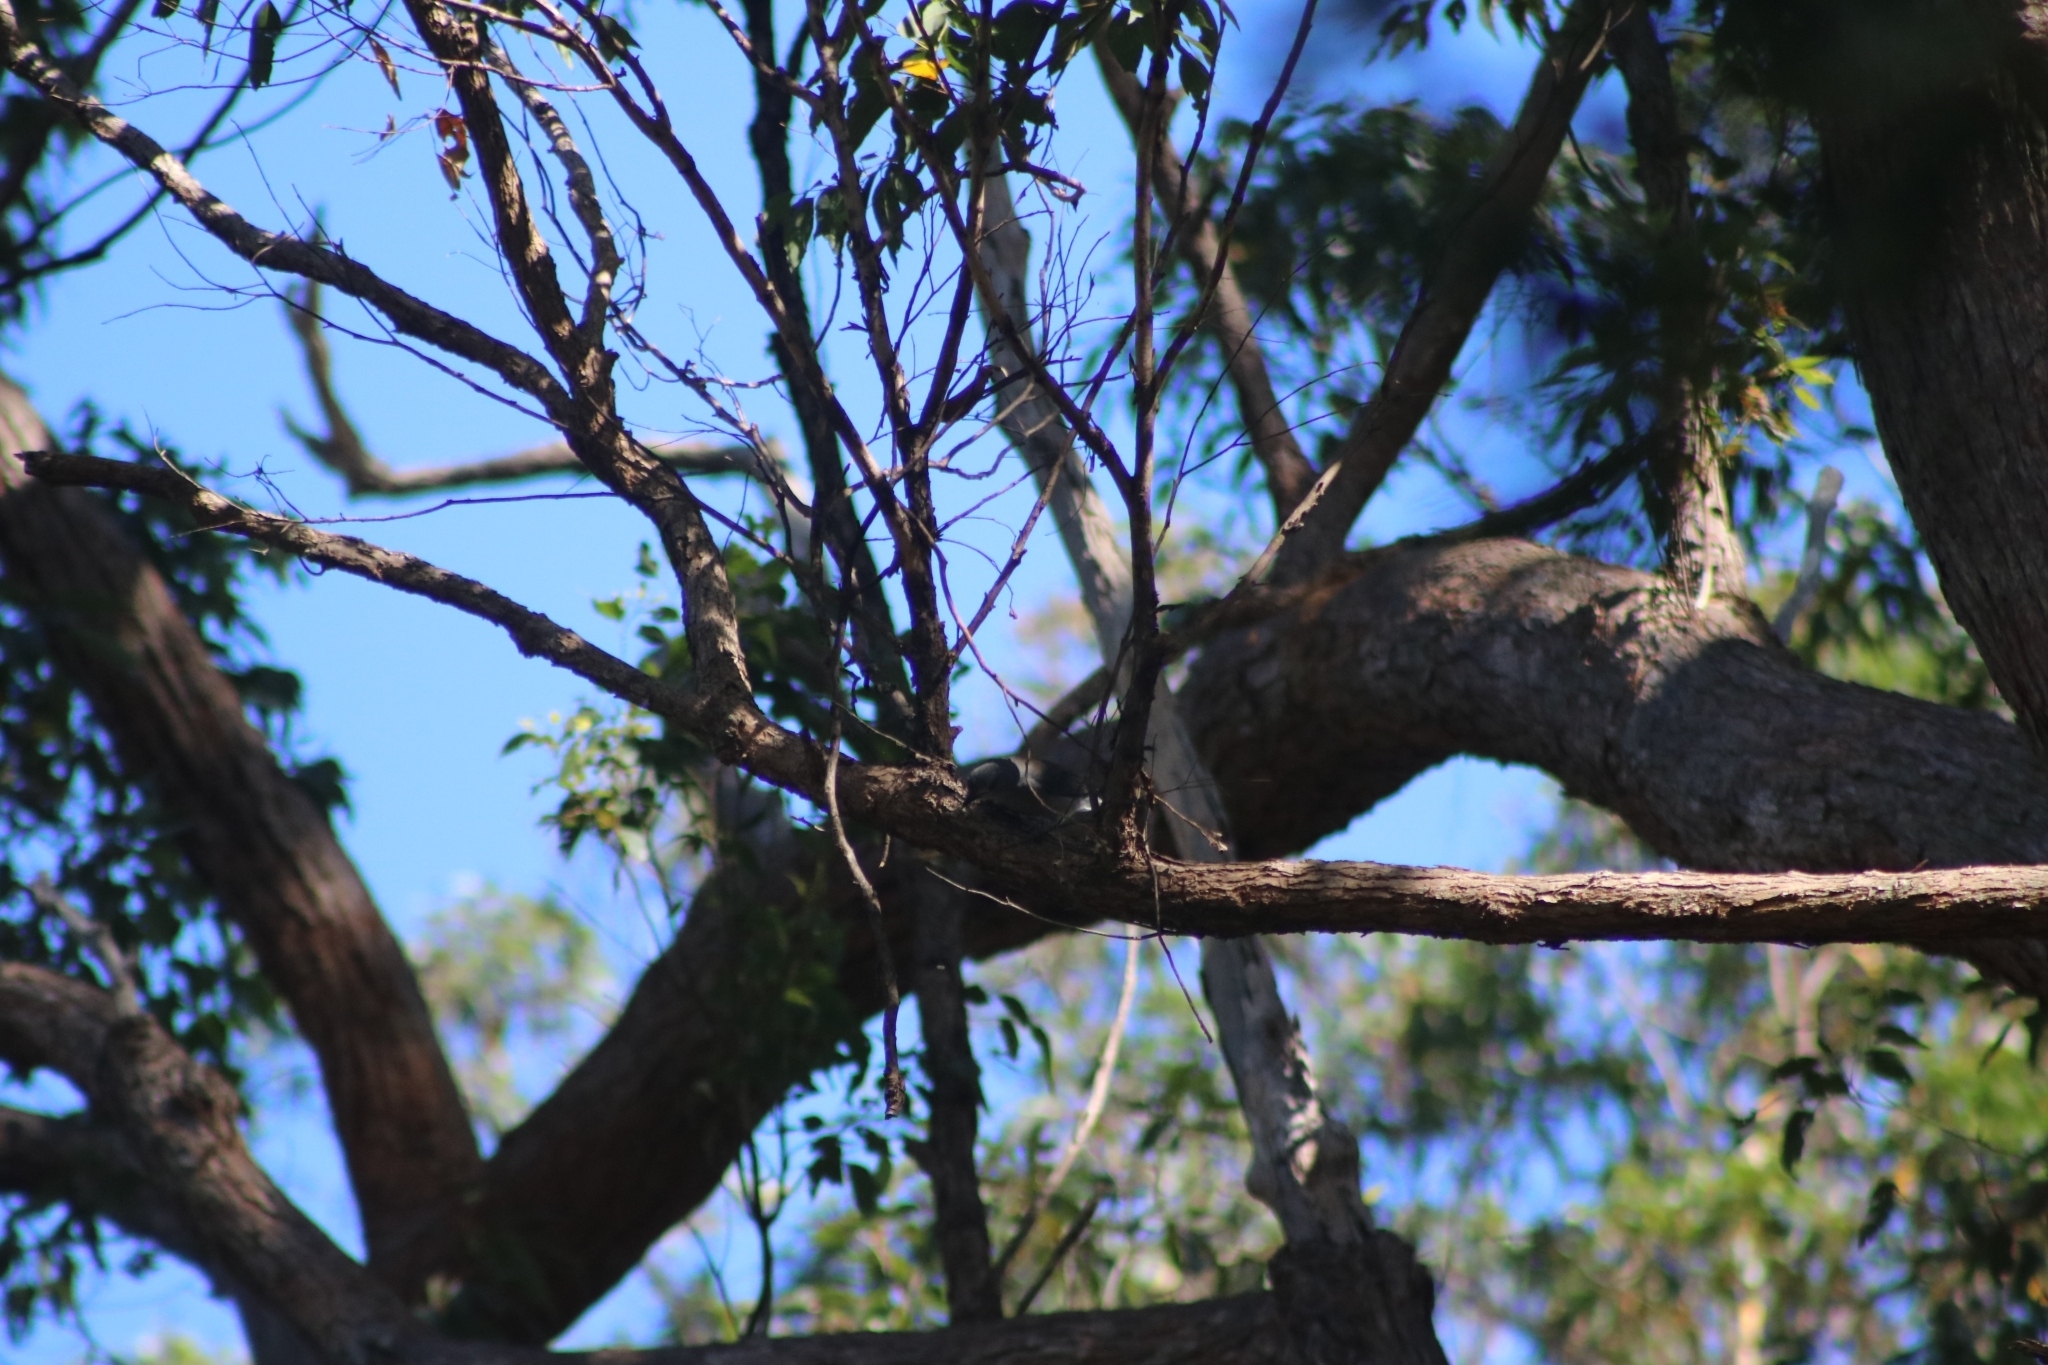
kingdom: Animalia
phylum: Chordata
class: Aves
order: Passeriformes
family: Pachycephalidae
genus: Colluricincla
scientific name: Colluricincla harmonica
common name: Grey shrikethrush
